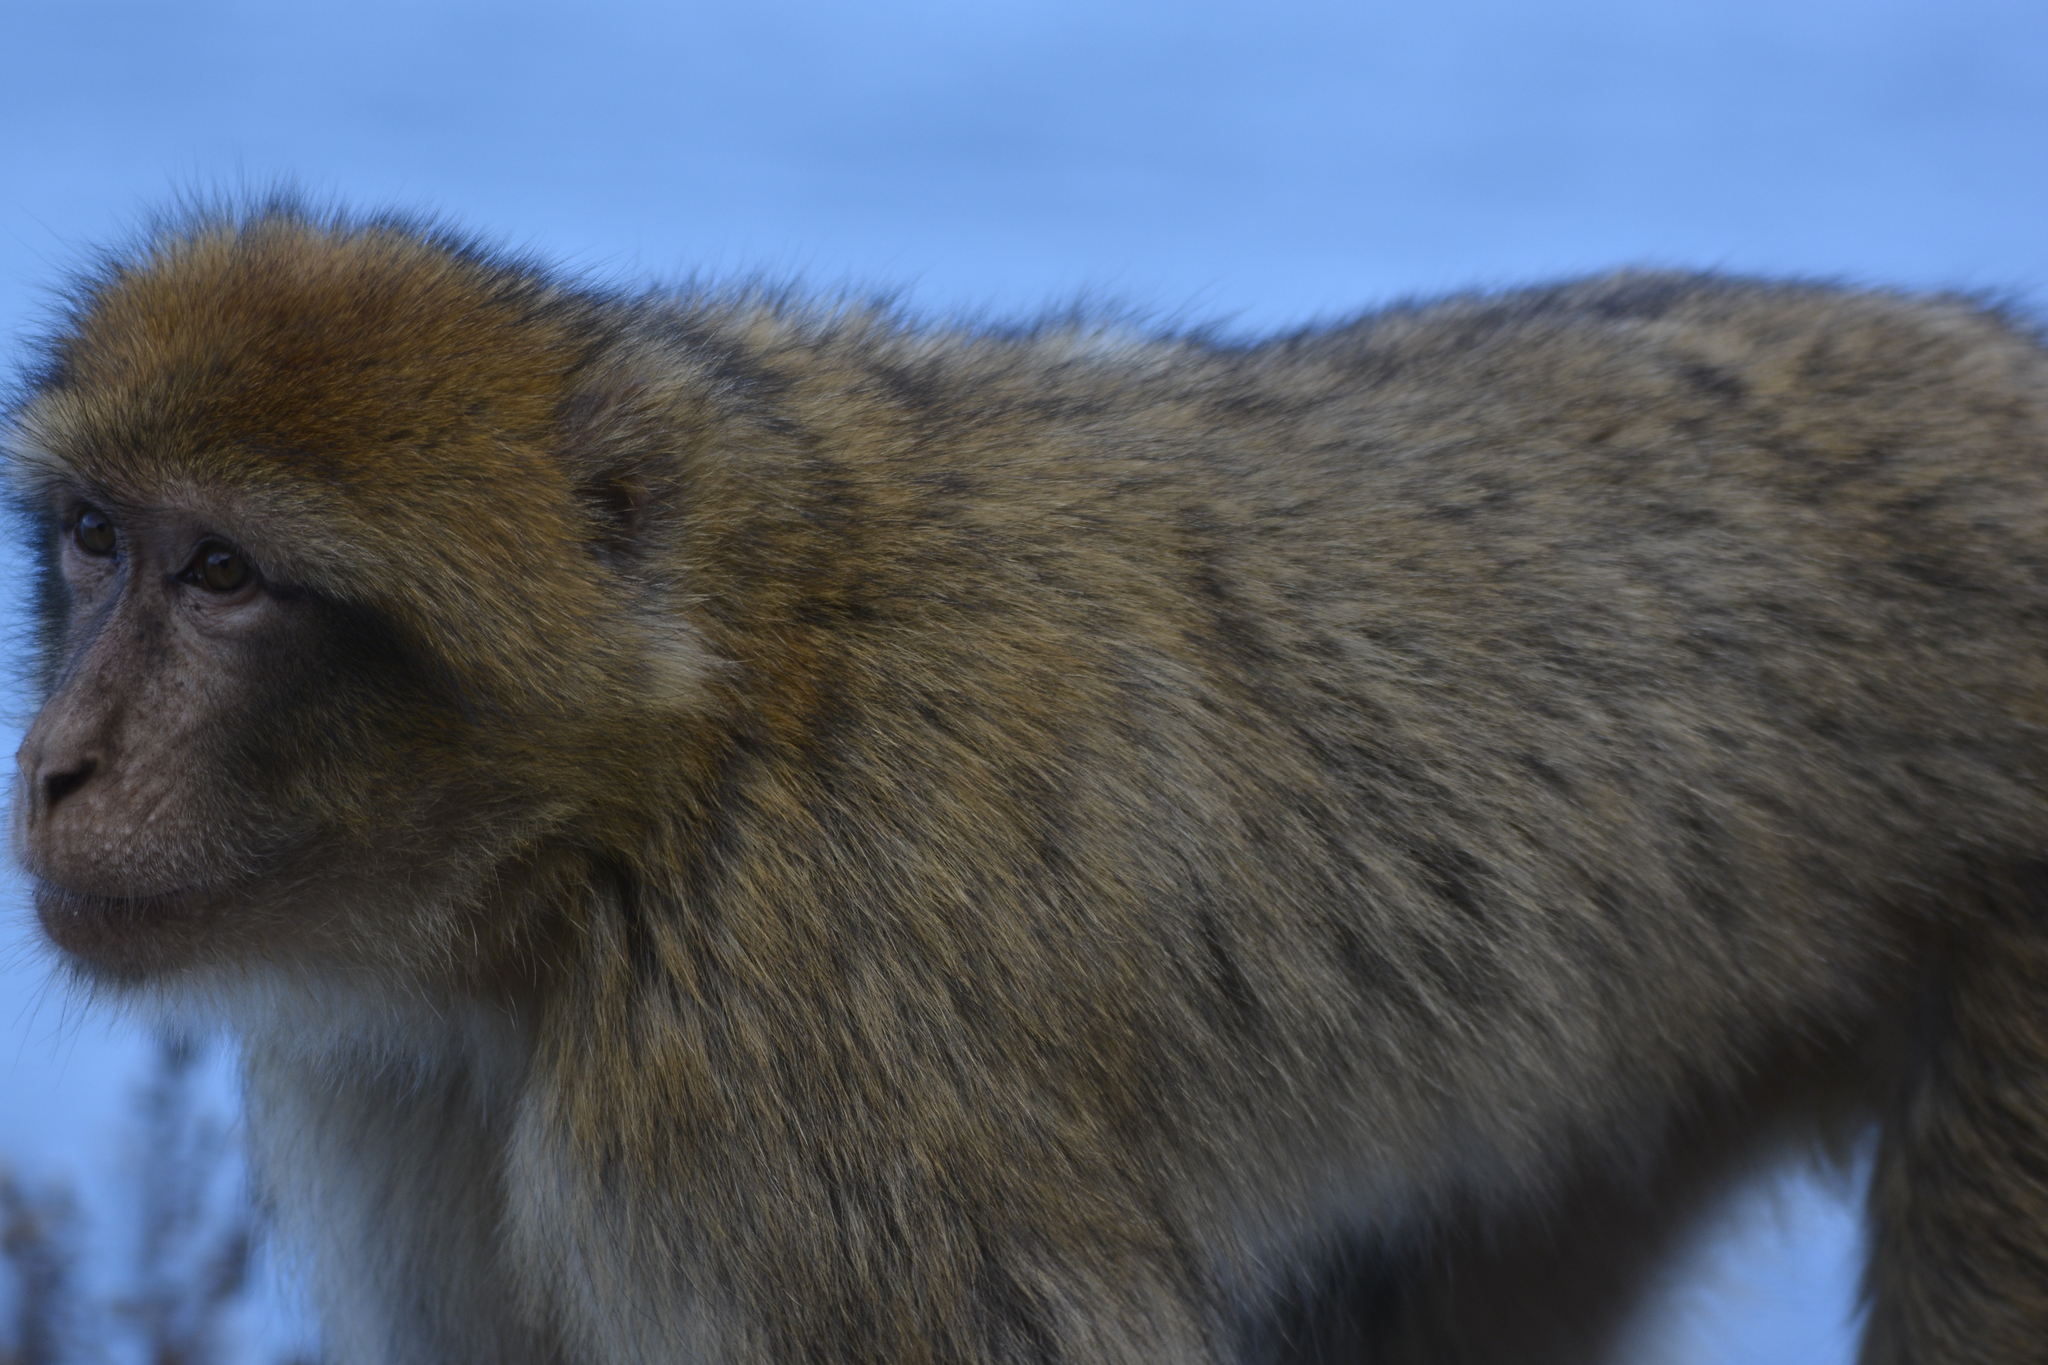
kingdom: Animalia
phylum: Chordata
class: Mammalia
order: Primates
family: Cercopithecidae
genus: Macaca
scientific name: Macaca sylvanus
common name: Barbary macaque
